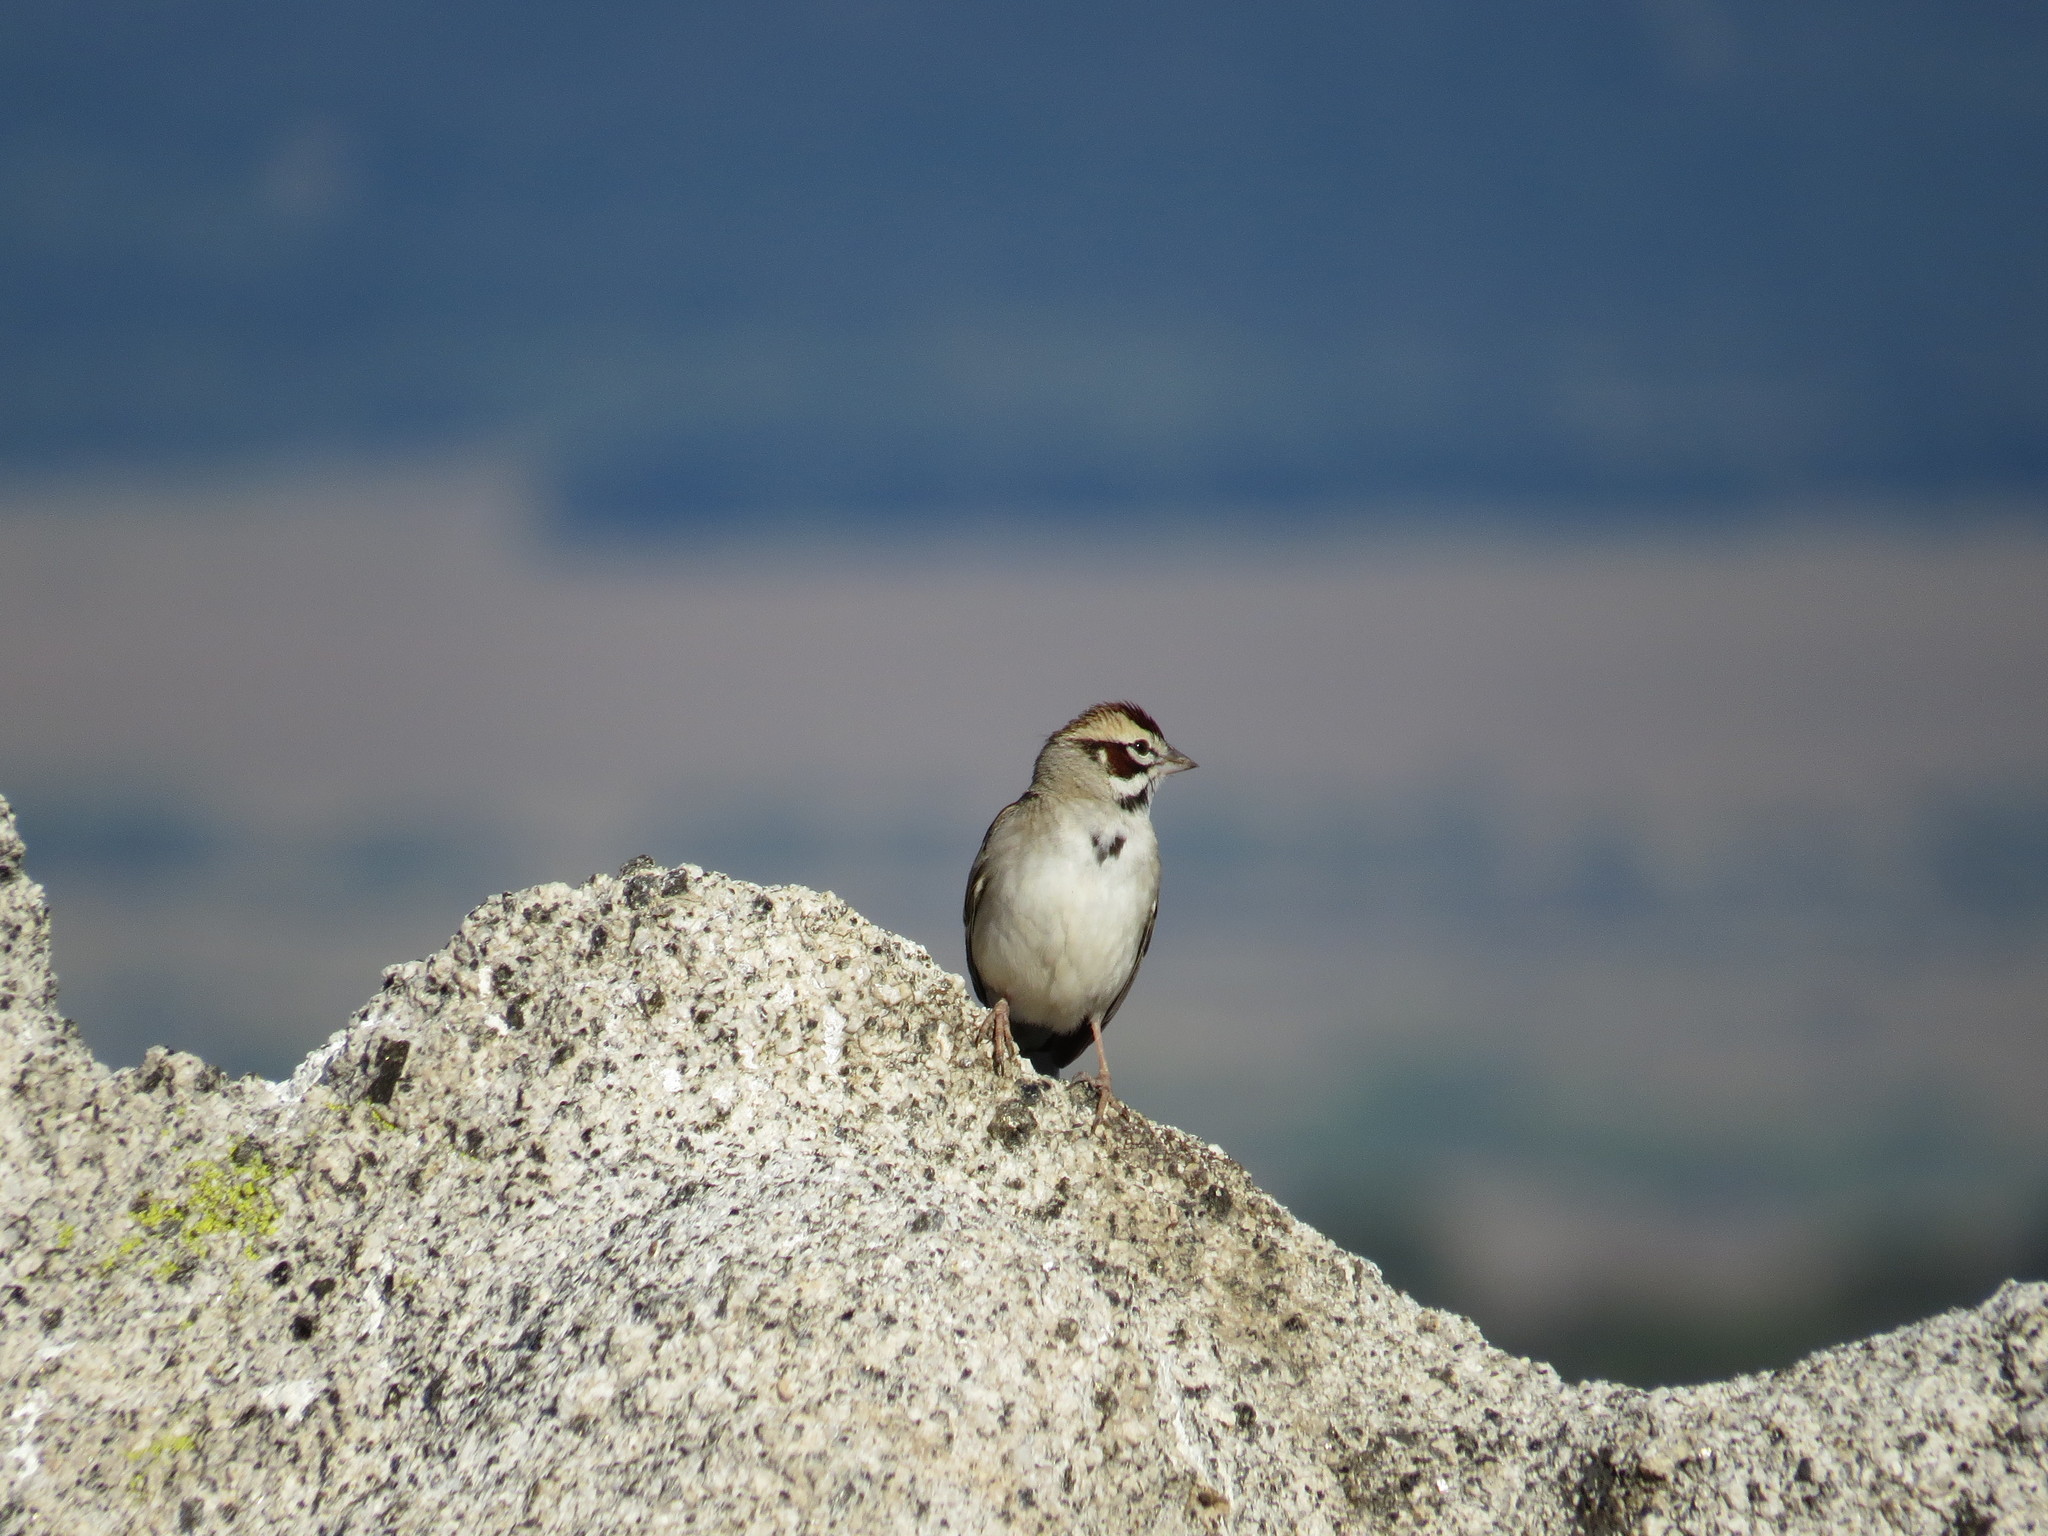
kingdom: Animalia
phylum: Chordata
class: Aves
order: Passeriformes
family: Passerellidae
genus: Chondestes
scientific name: Chondestes grammacus
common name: Lark sparrow
